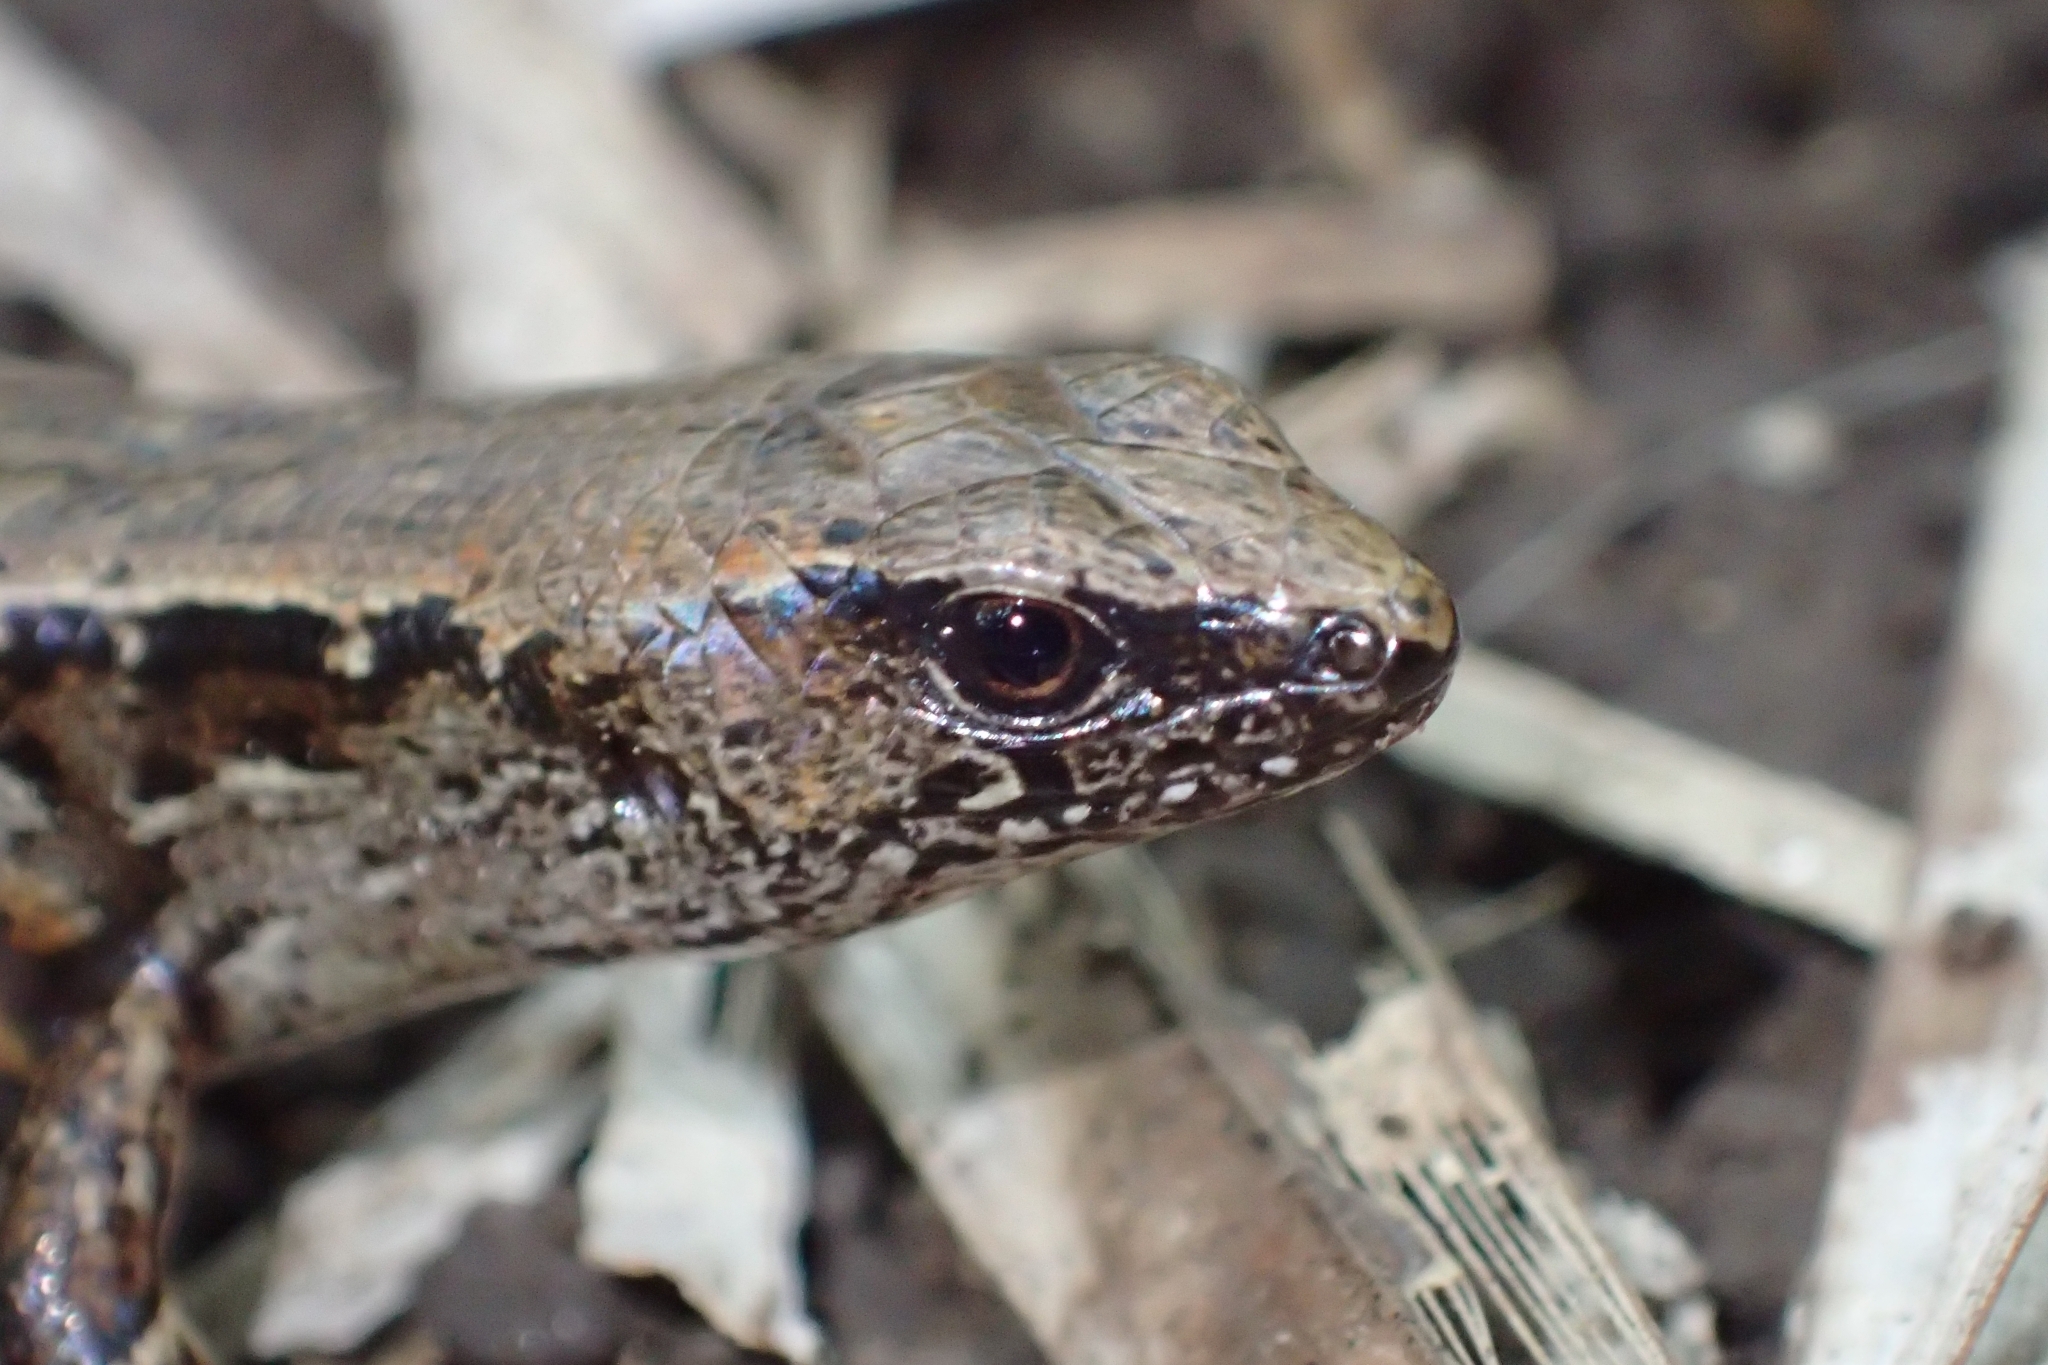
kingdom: Animalia
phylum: Chordata
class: Squamata
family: Scincidae
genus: Oligosoma
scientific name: Oligosoma ornatum
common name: Gray's ornate skink
